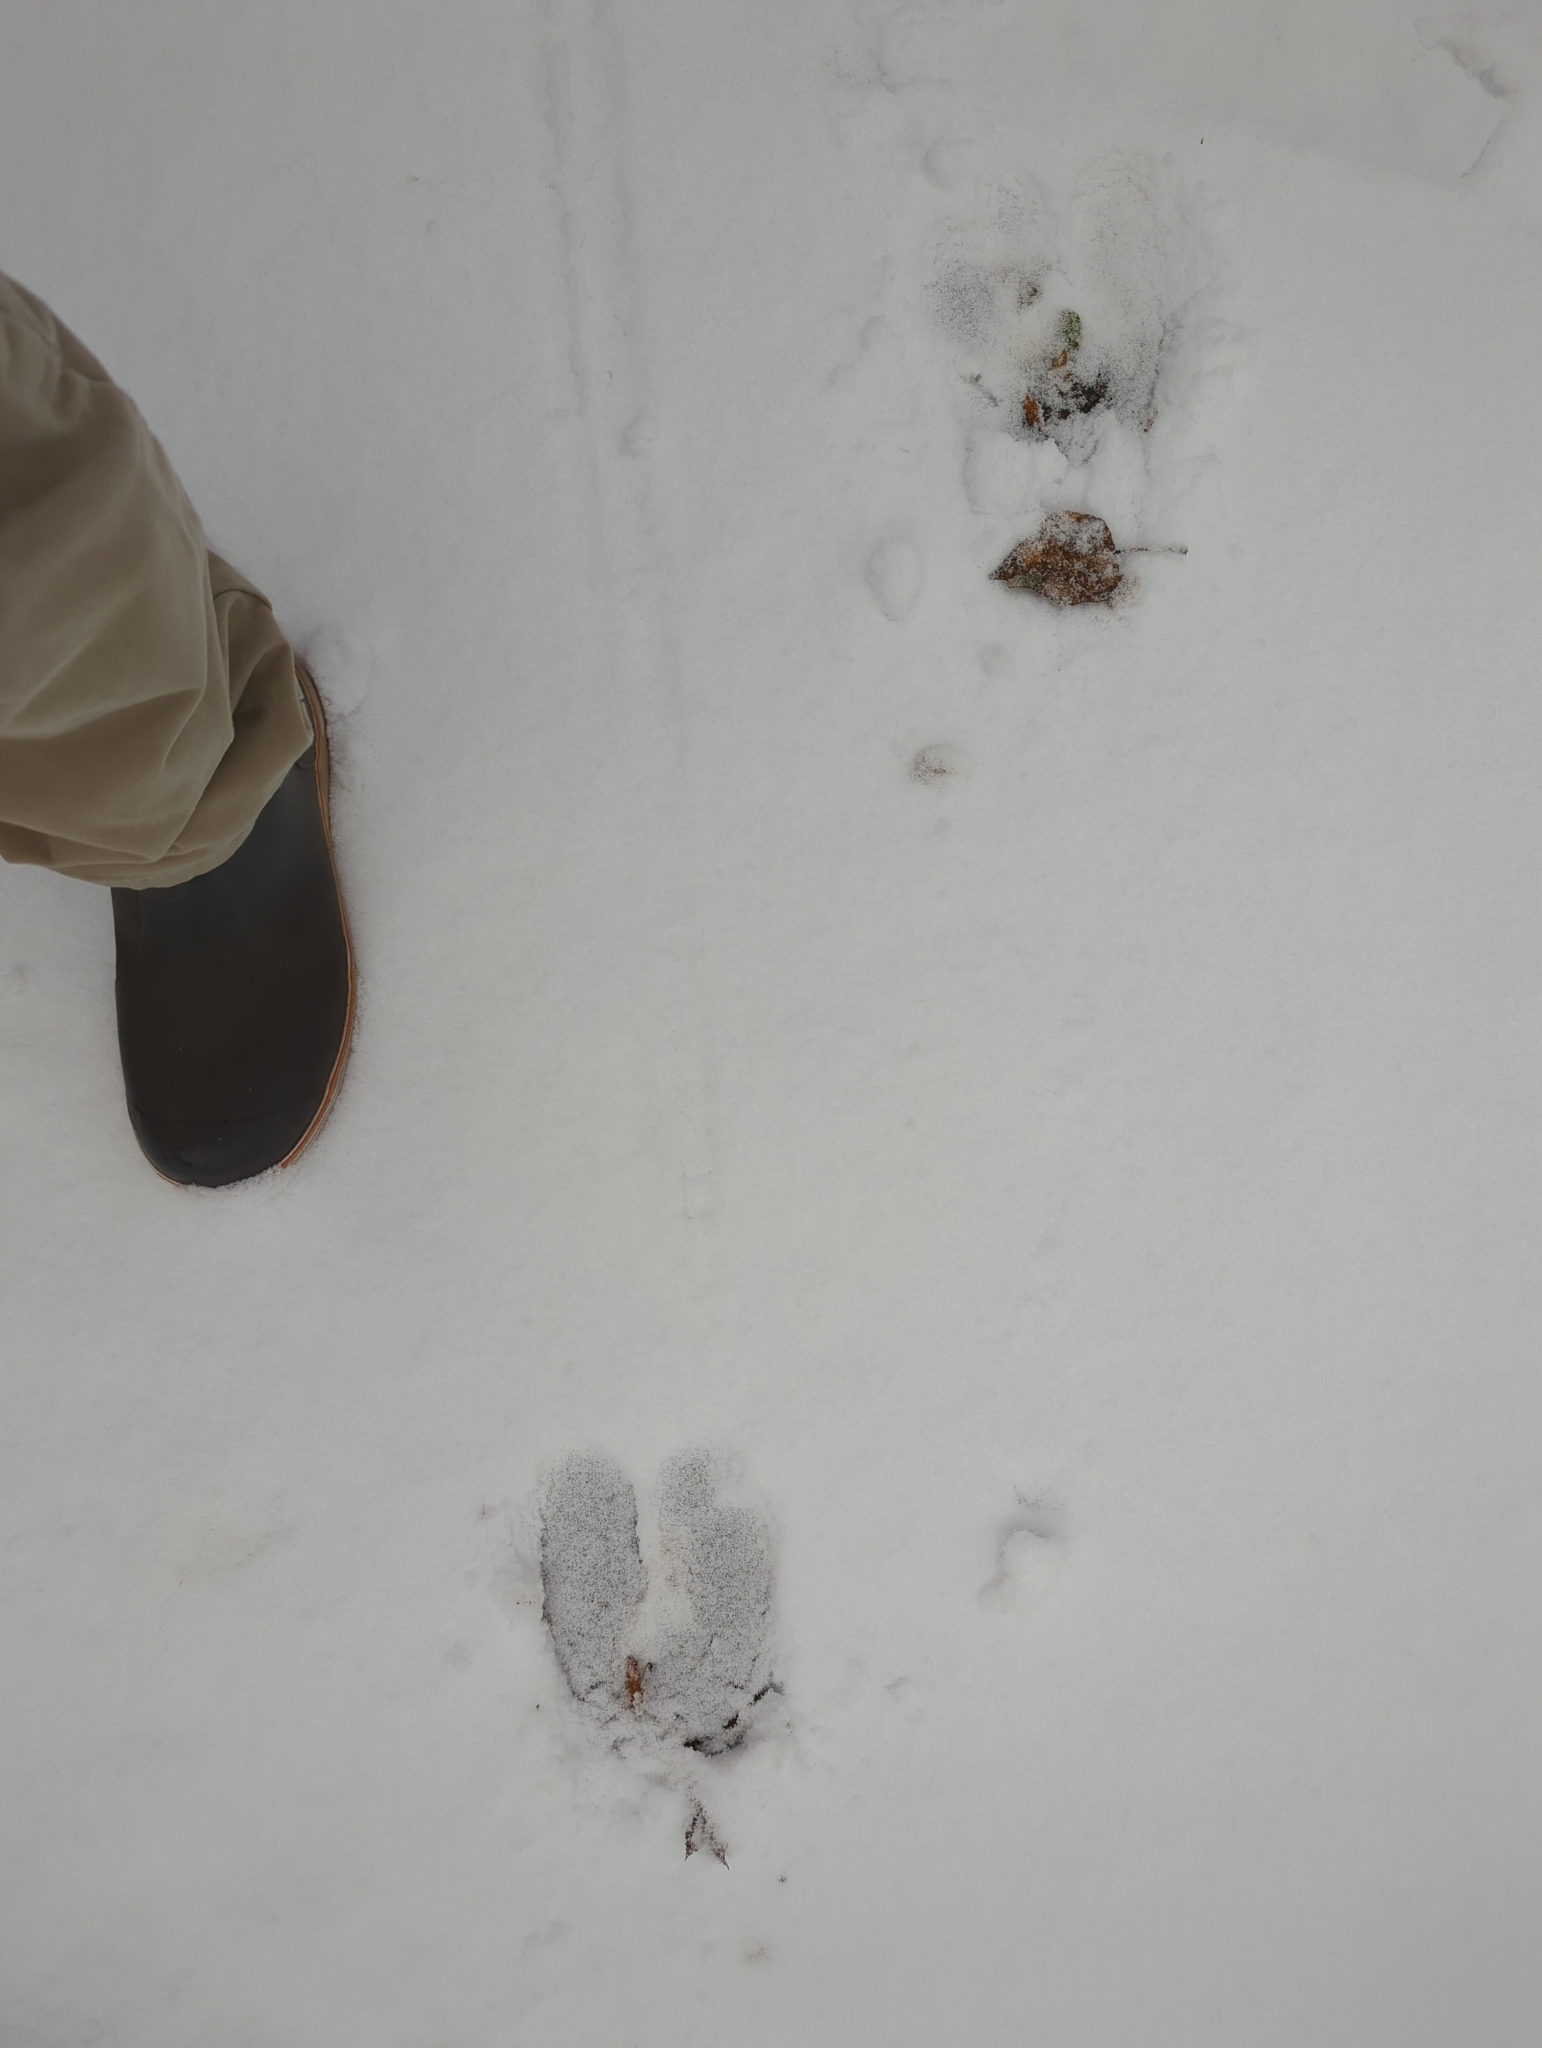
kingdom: Animalia
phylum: Chordata
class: Mammalia
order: Artiodactyla
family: Cervidae
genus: Alces
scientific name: Alces alces
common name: Moose
